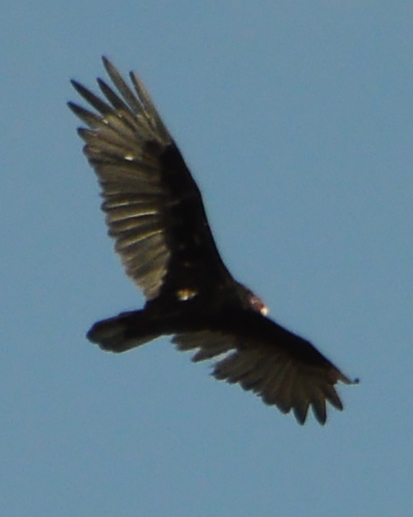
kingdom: Animalia
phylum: Chordata
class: Aves
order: Accipitriformes
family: Cathartidae
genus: Cathartes
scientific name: Cathartes aura
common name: Turkey vulture
